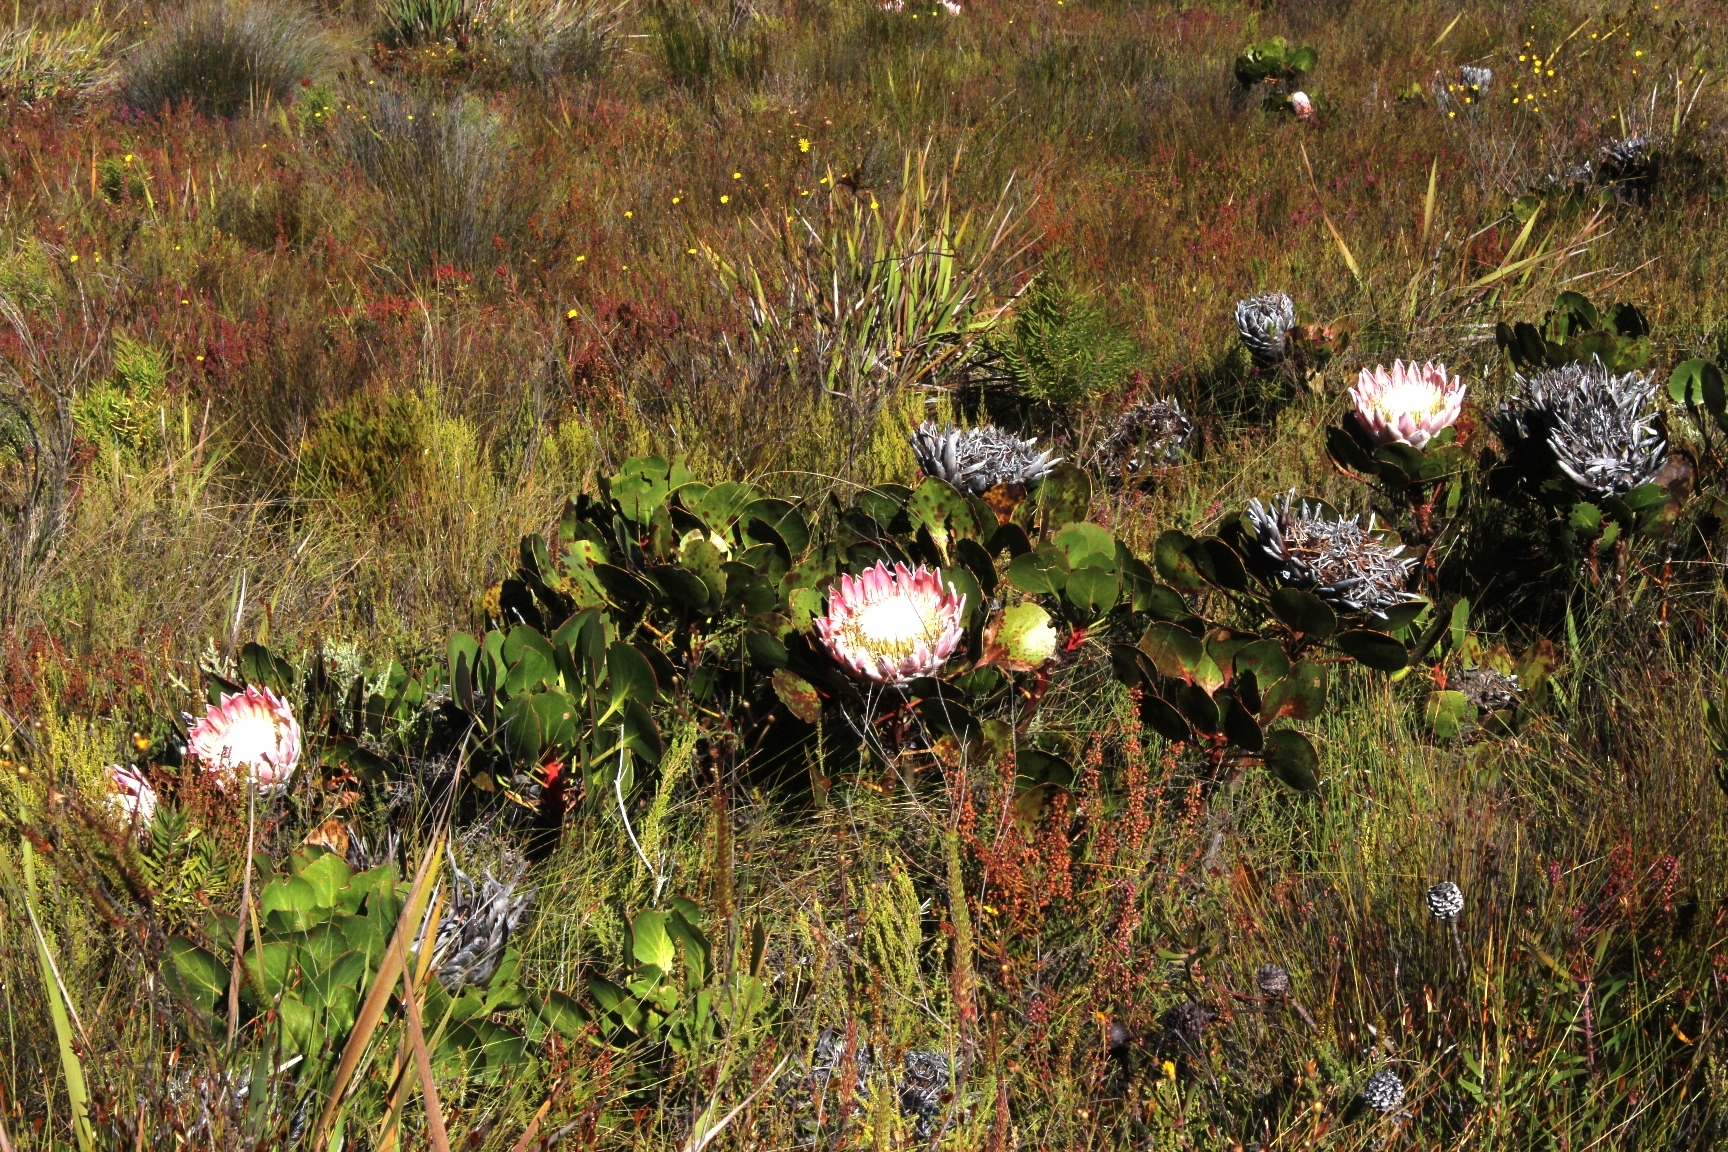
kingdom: Plantae
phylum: Tracheophyta
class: Magnoliopsida
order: Proteales
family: Proteaceae
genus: Protea
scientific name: Protea cynaroides
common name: King protea
